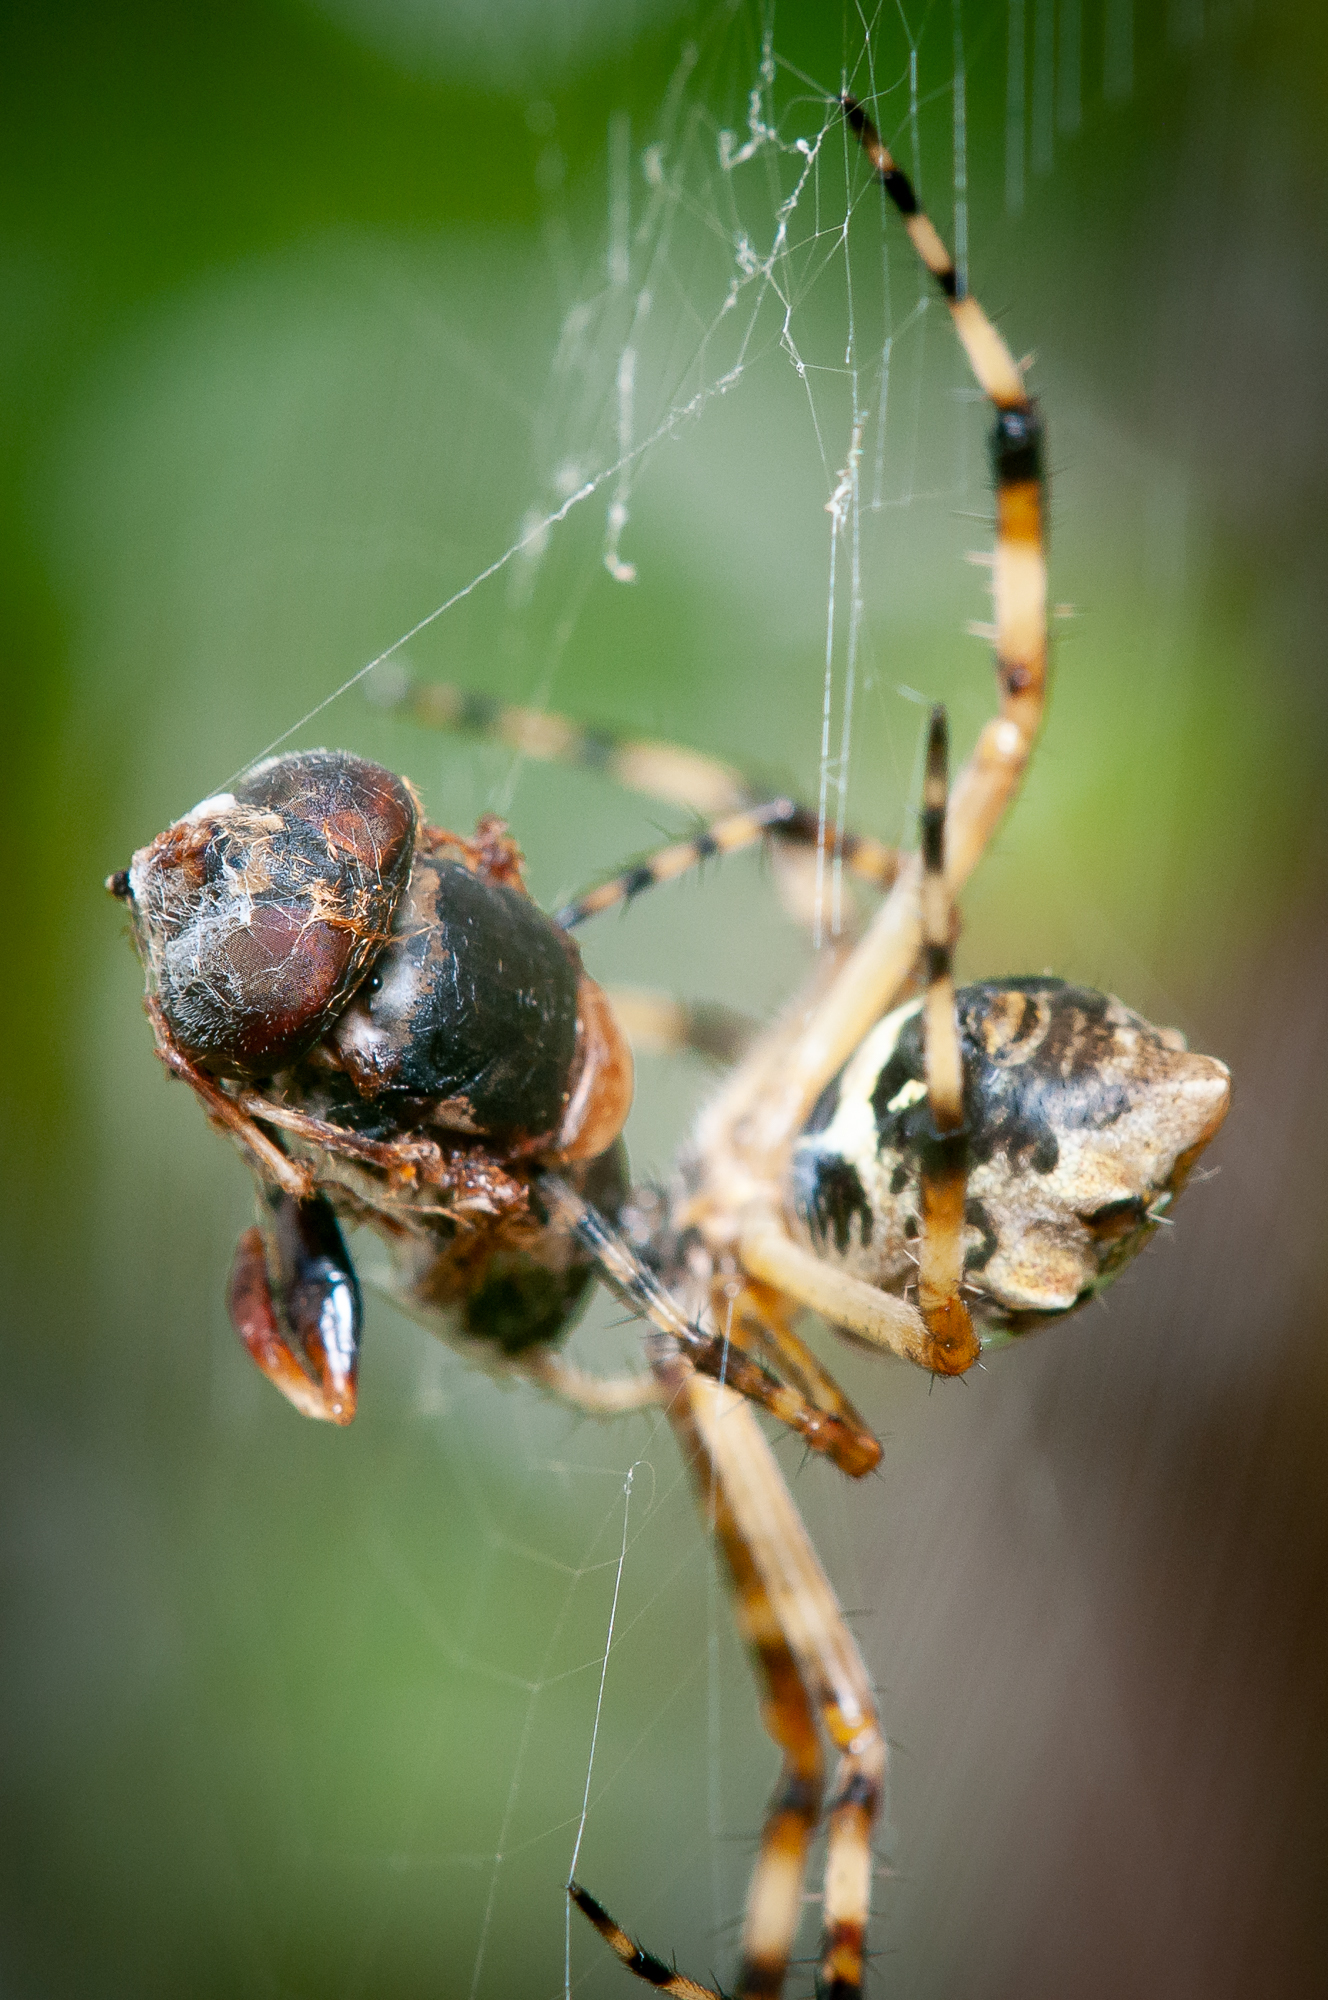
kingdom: Animalia
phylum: Arthropoda
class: Arachnida
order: Araneae
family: Araneidae
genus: Argiope
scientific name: Argiope argentata
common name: Orb weavers
